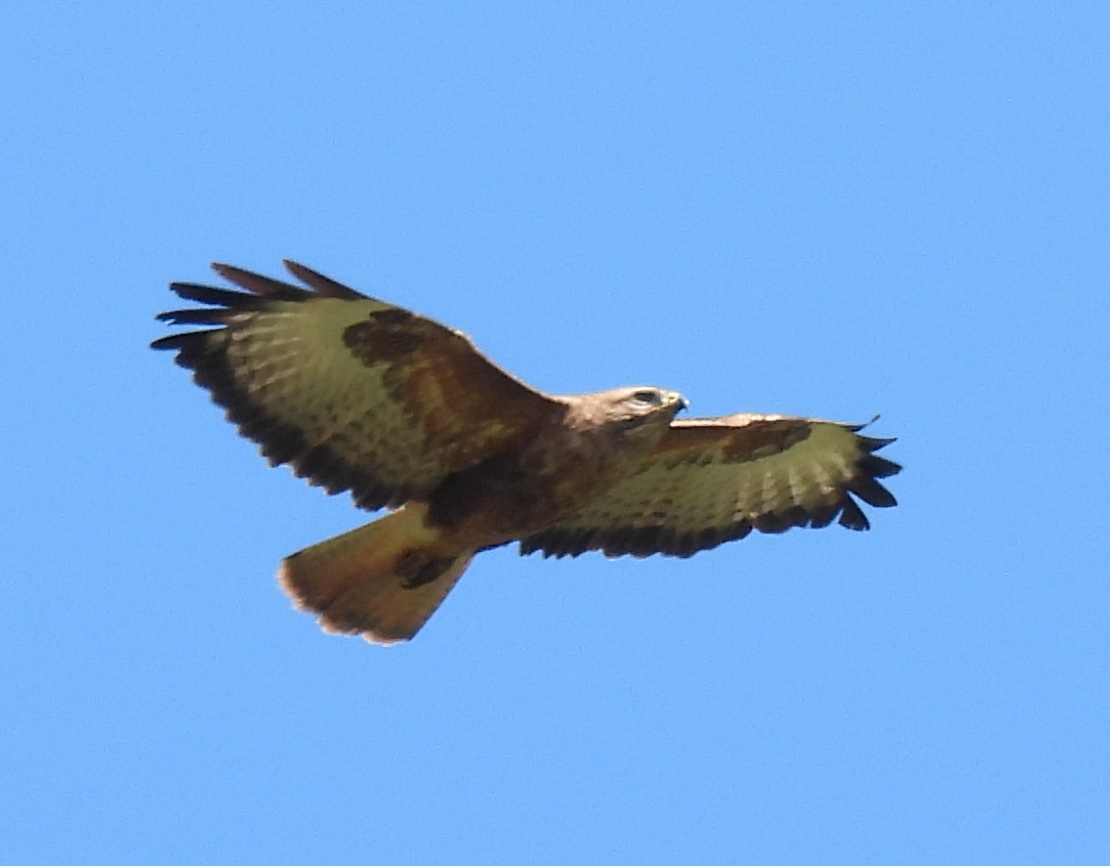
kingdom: Animalia
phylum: Chordata
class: Aves
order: Accipitriformes
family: Accipitridae
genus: Buteo
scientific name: Buteo buteo
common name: Common buzzard
